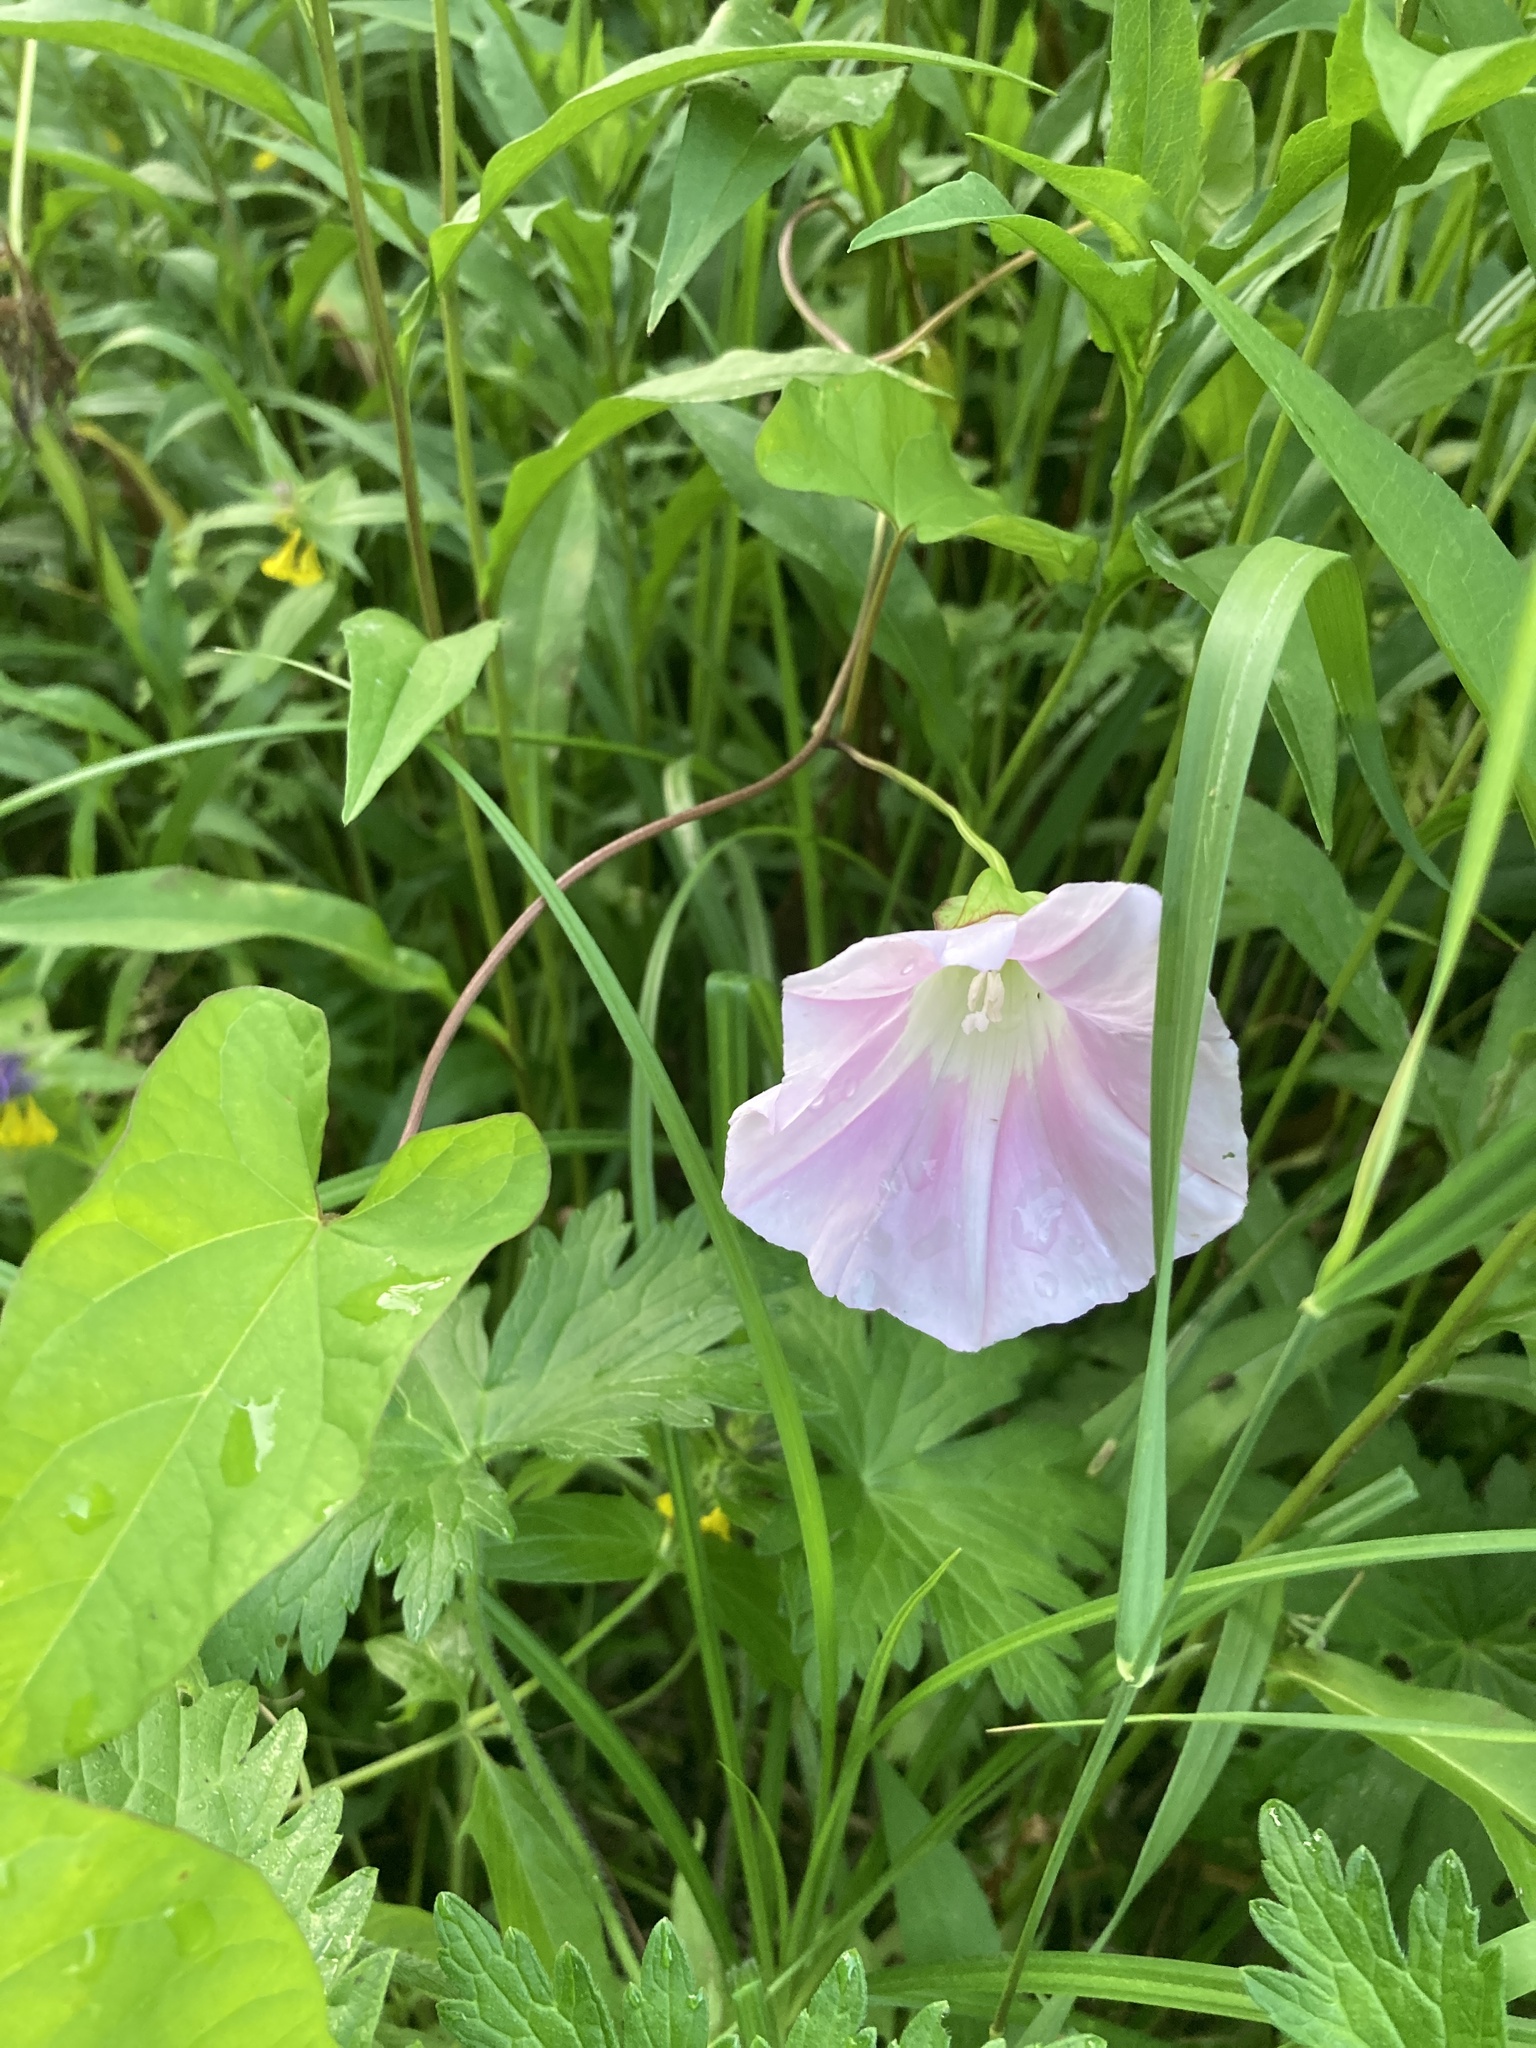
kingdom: Plantae
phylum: Tracheophyta
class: Magnoliopsida
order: Solanales
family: Convolvulaceae
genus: Calystegia
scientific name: Calystegia sepium
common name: Hedge bindweed
